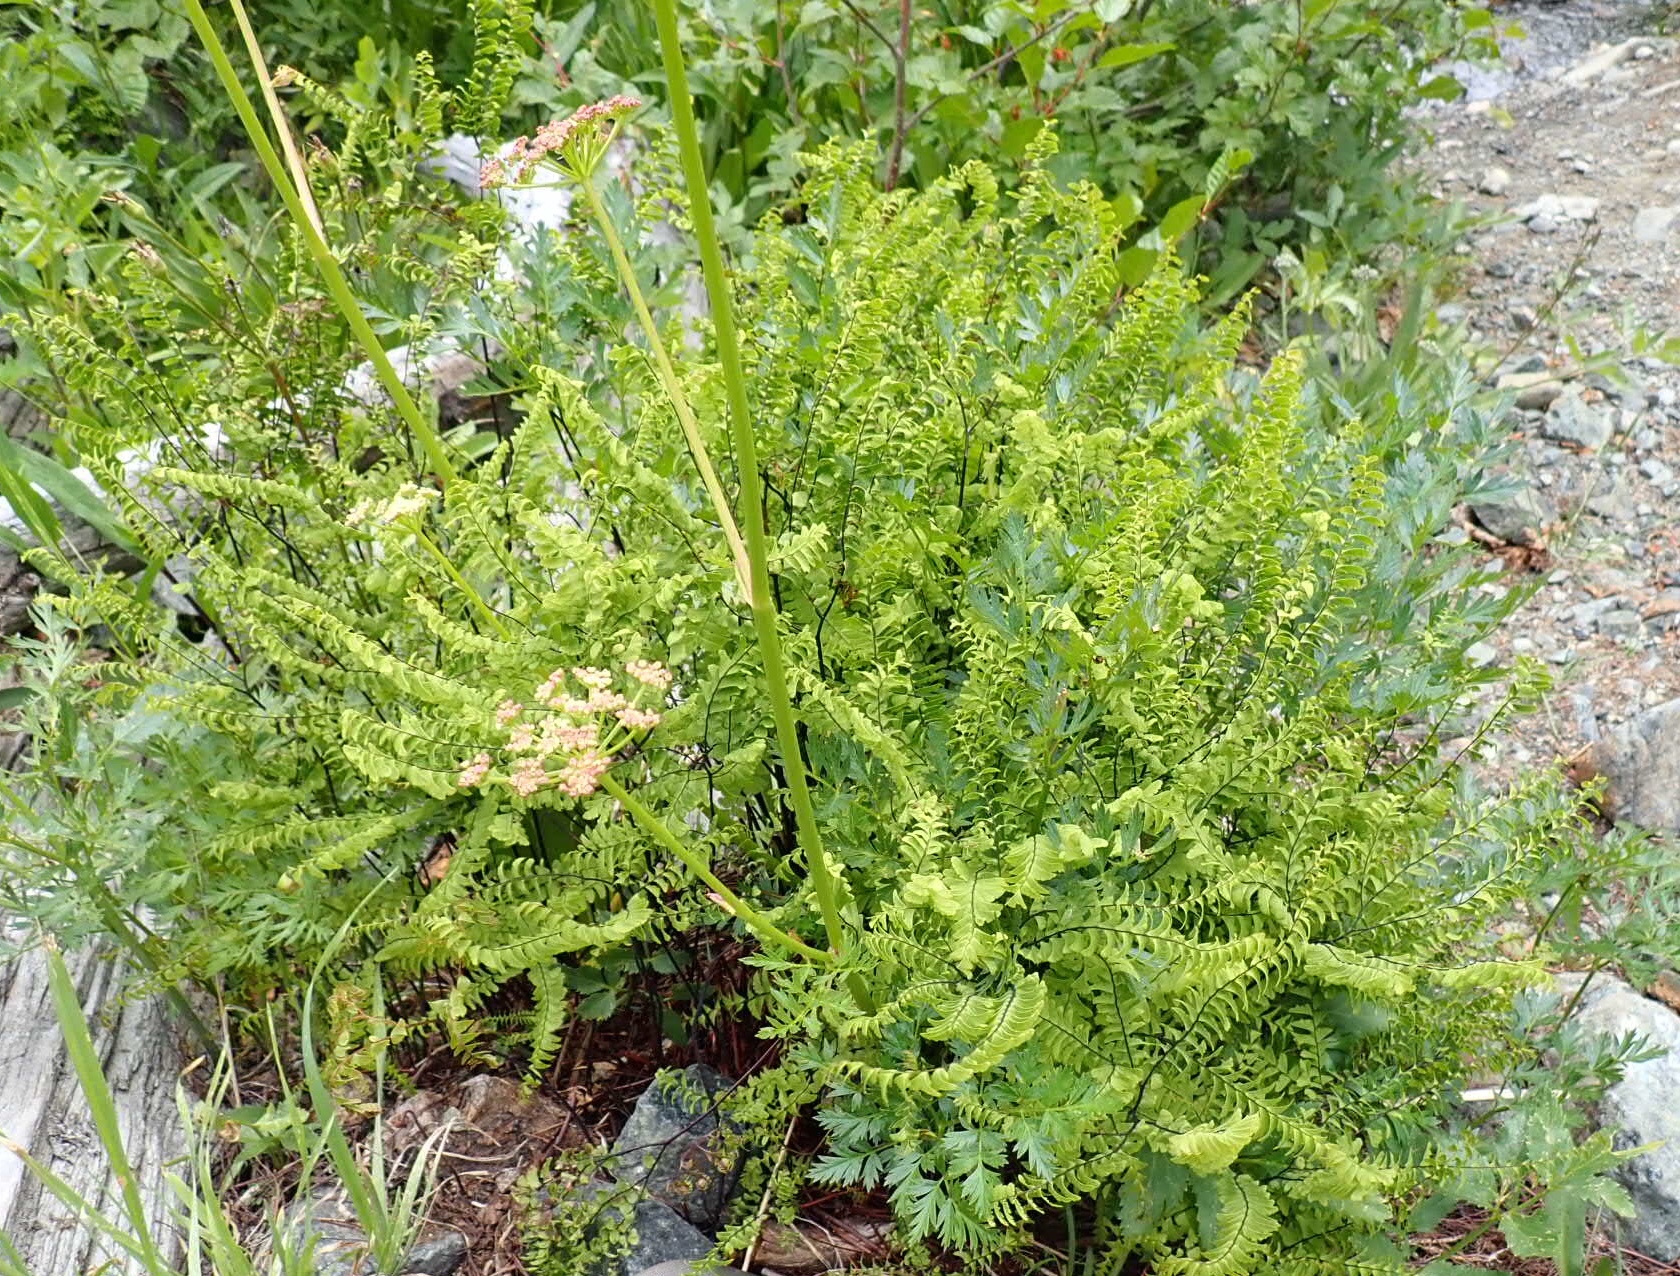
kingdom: Plantae
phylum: Tracheophyta
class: Polypodiopsida
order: Polypodiales
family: Pteridaceae
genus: Adiantum
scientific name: Adiantum aleuticum
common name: Aleutian maidenhair fern
